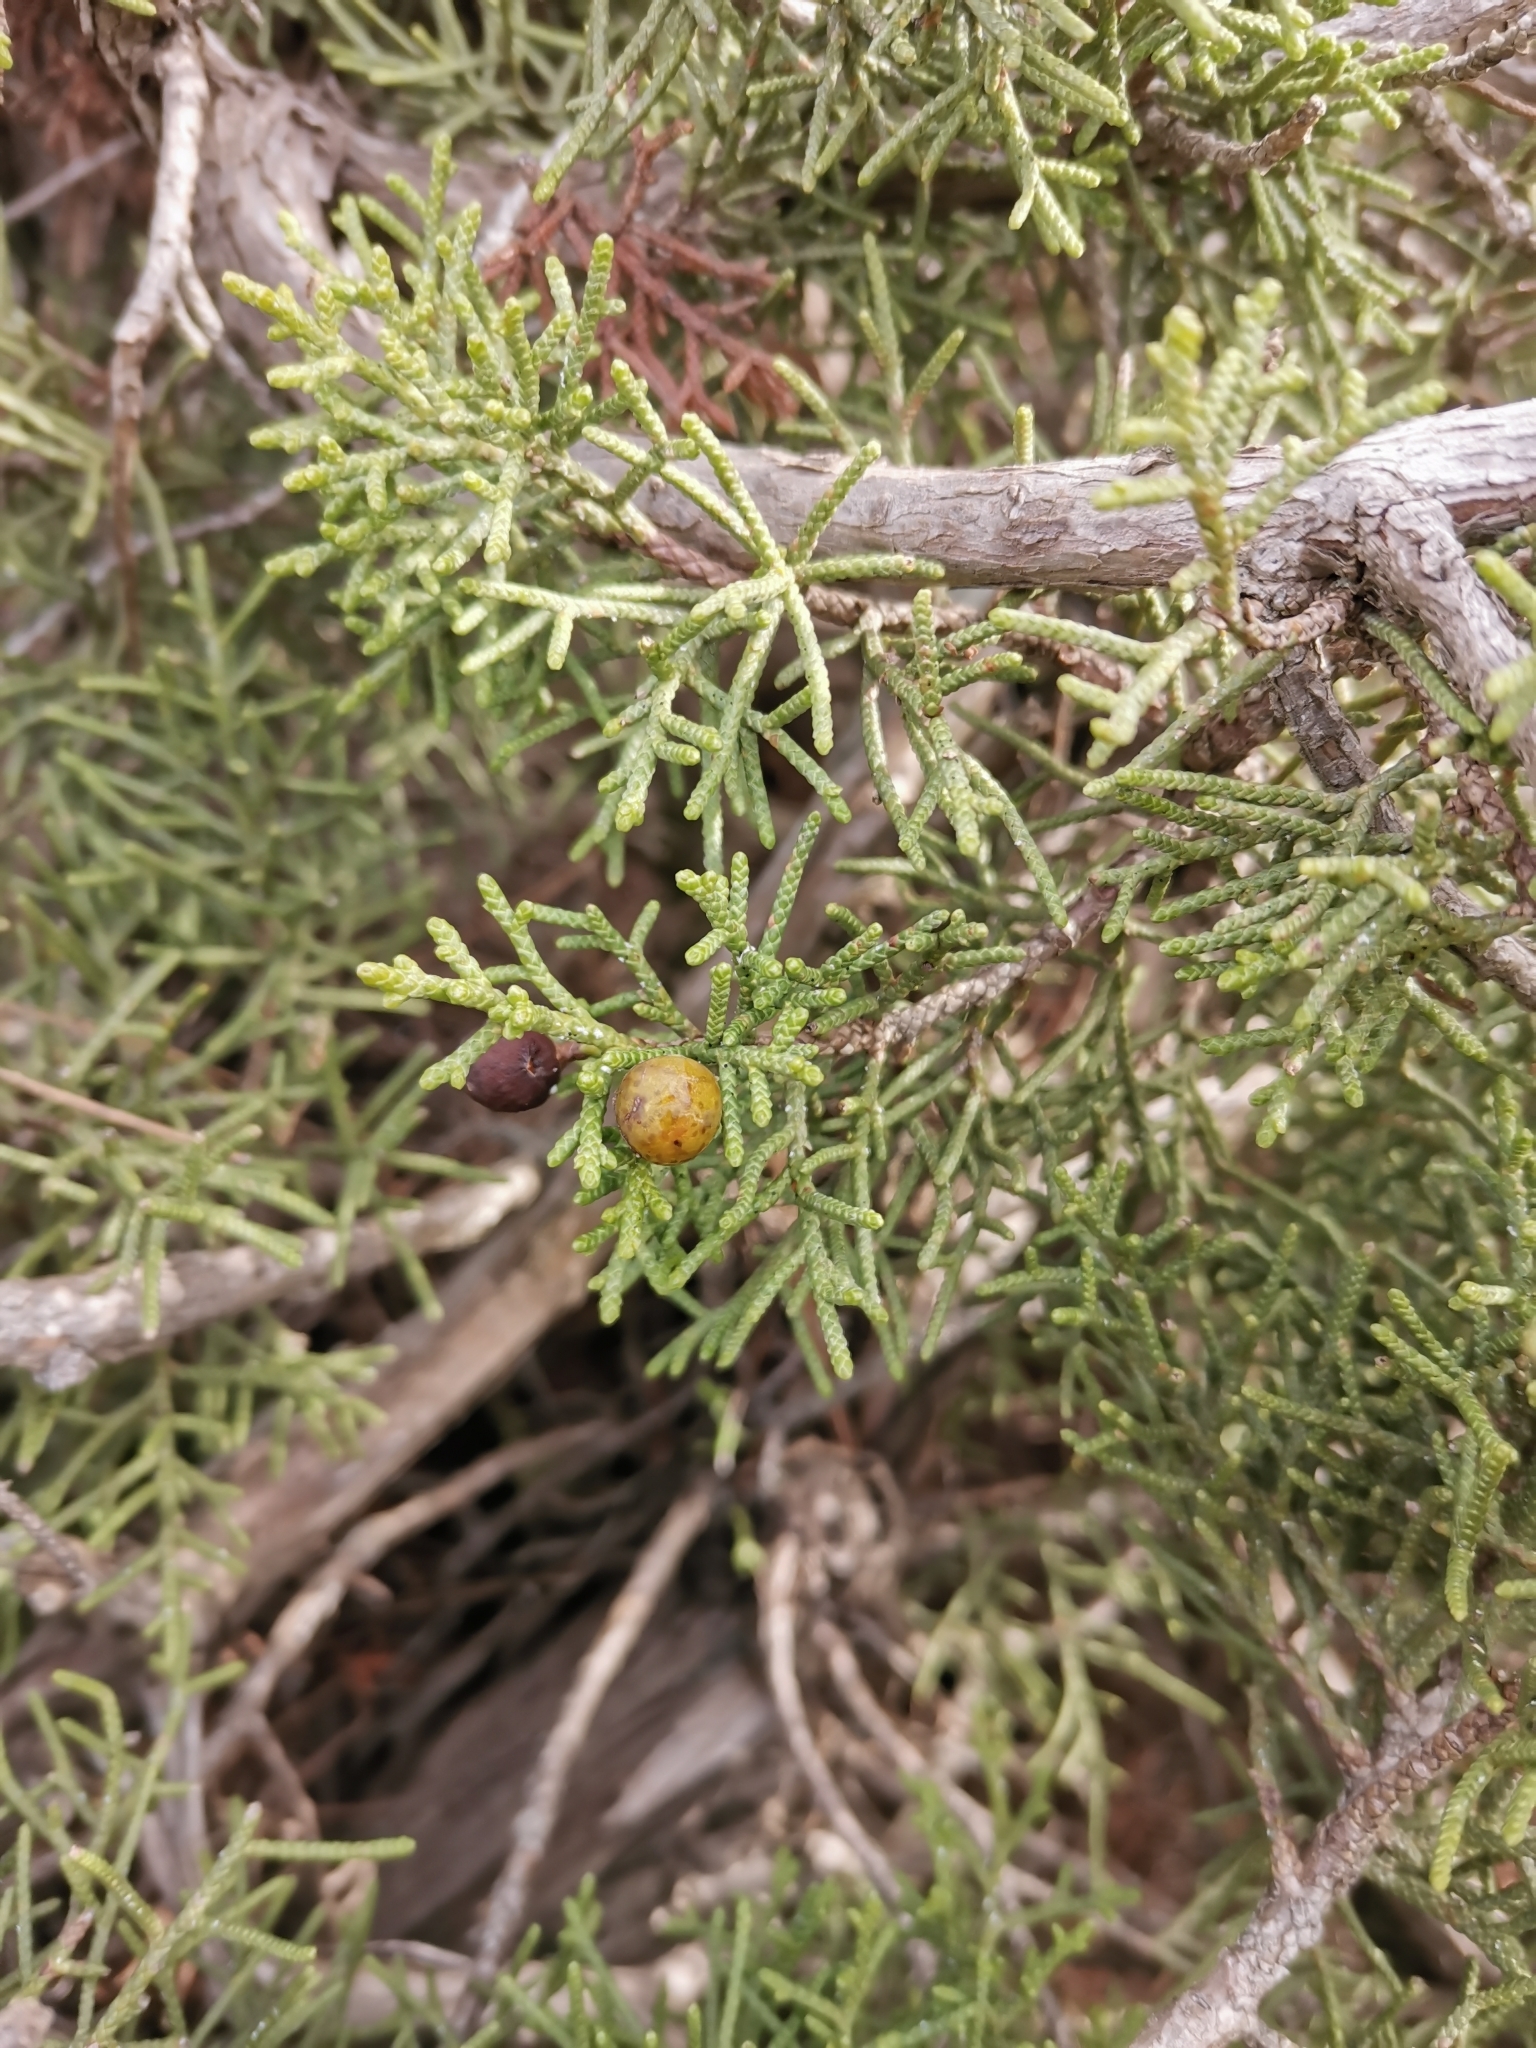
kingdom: Plantae
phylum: Tracheophyta
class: Pinopsida
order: Pinales
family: Cupressaceae
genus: Juniperus
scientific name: Juniperus phoenicea
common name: Phoenician juniper
